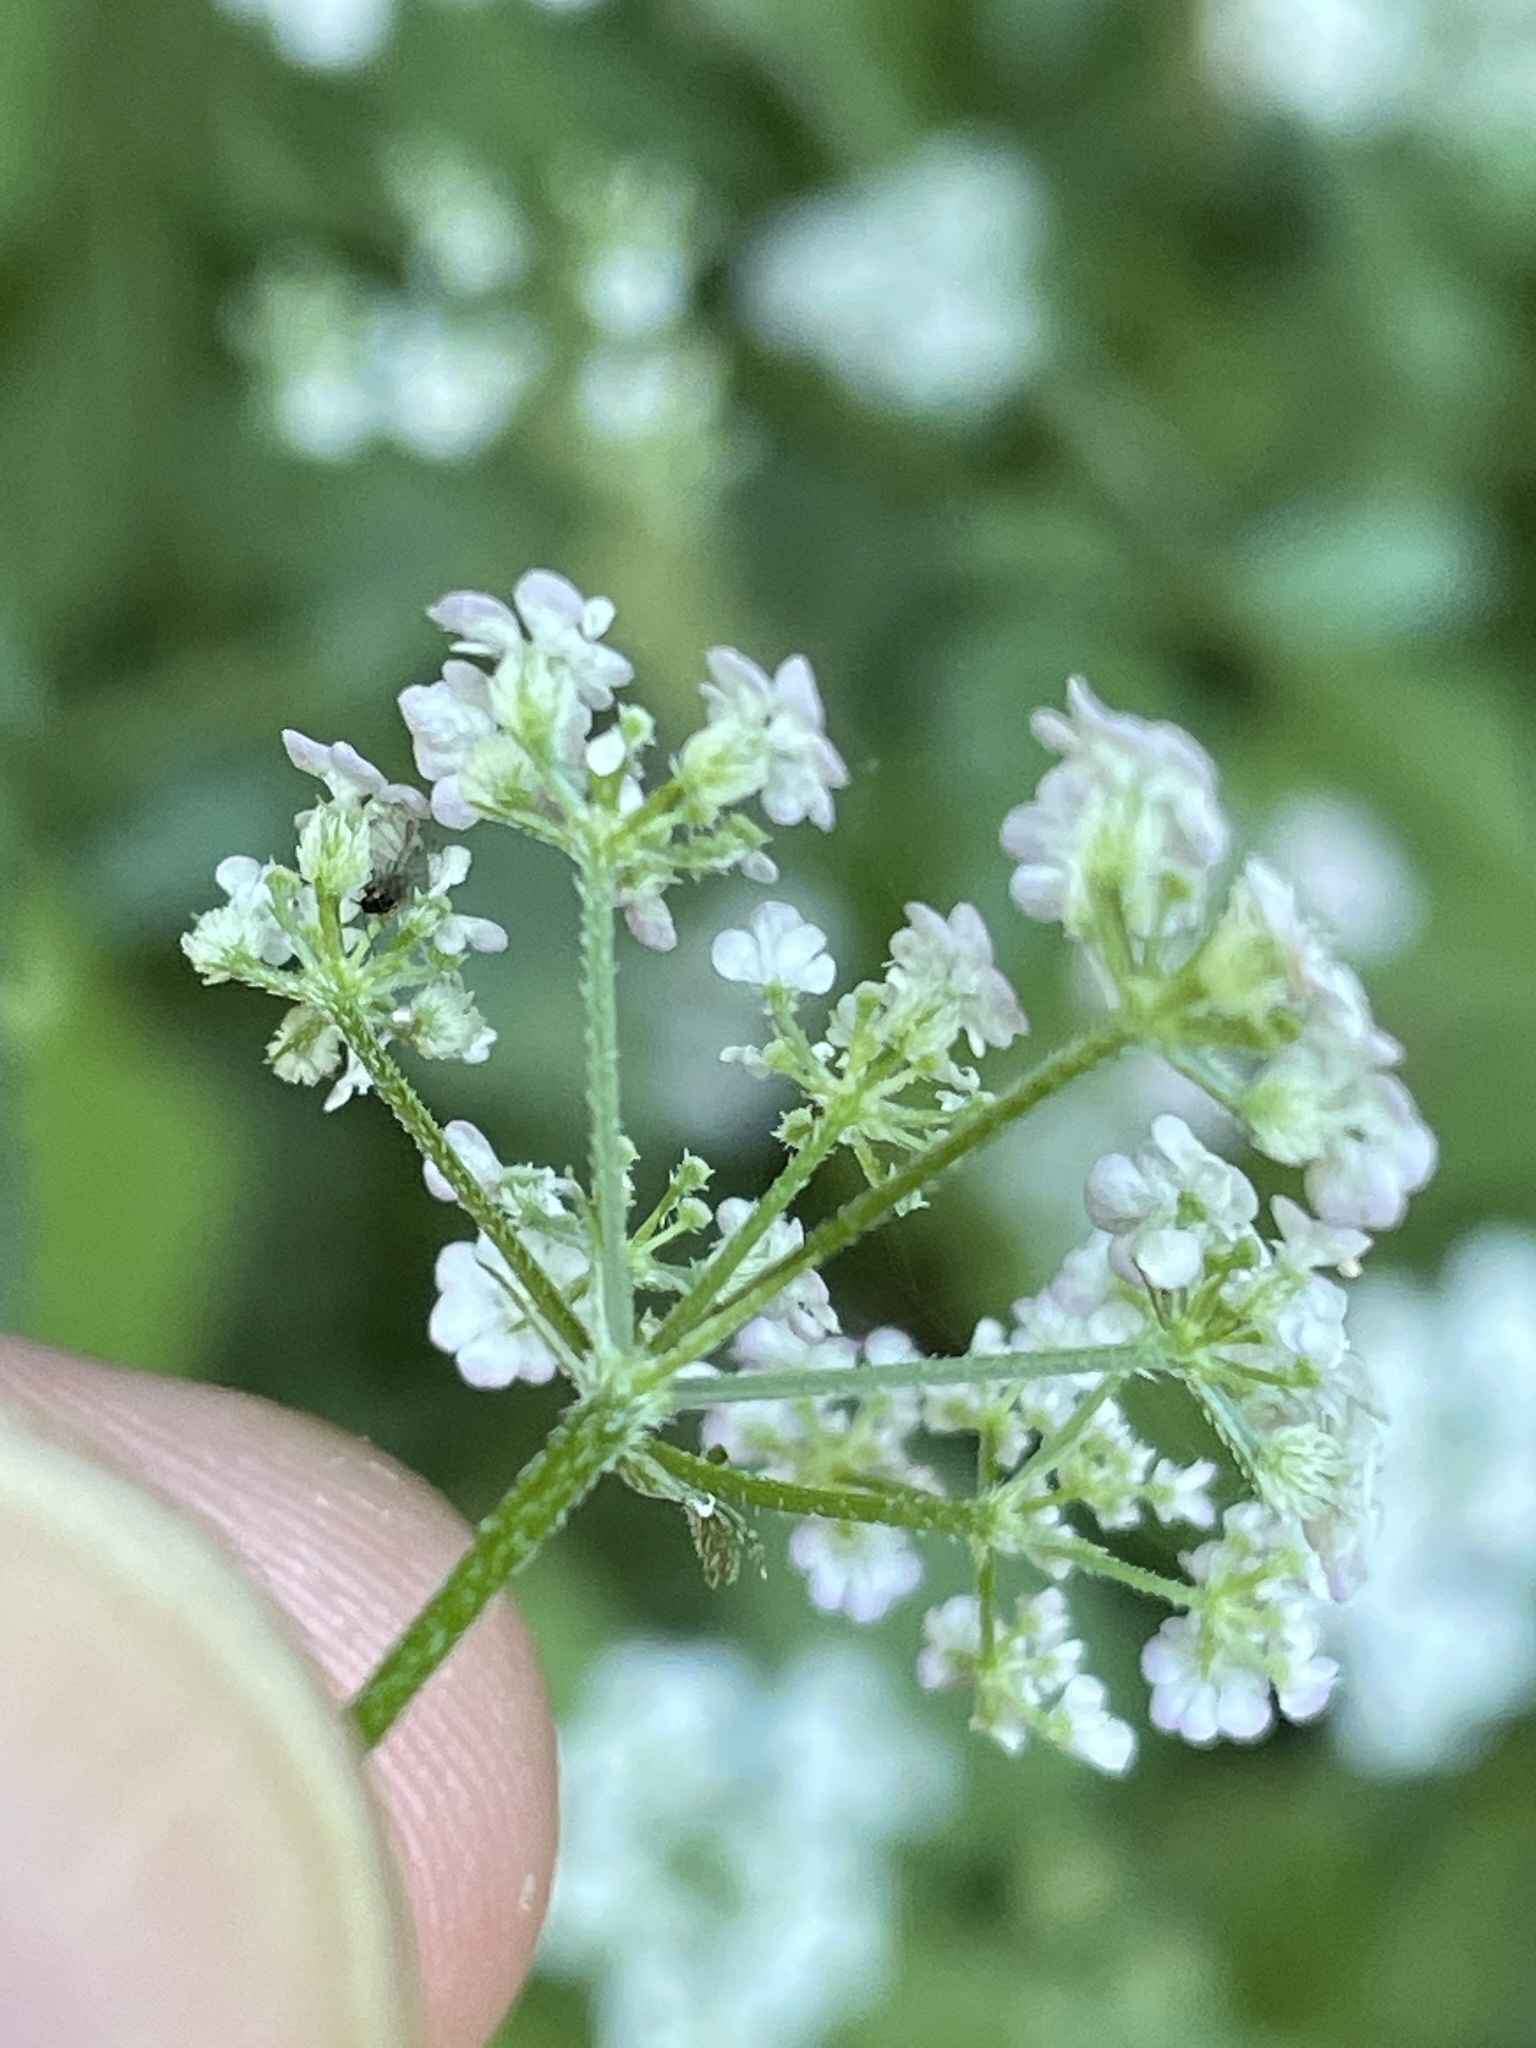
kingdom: Plantae
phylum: Tracheophyta
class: Magnoliopsida
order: Apiales
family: Apiaceae
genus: Torilis
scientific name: Torilis japonica
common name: Upright hedge-parsley
